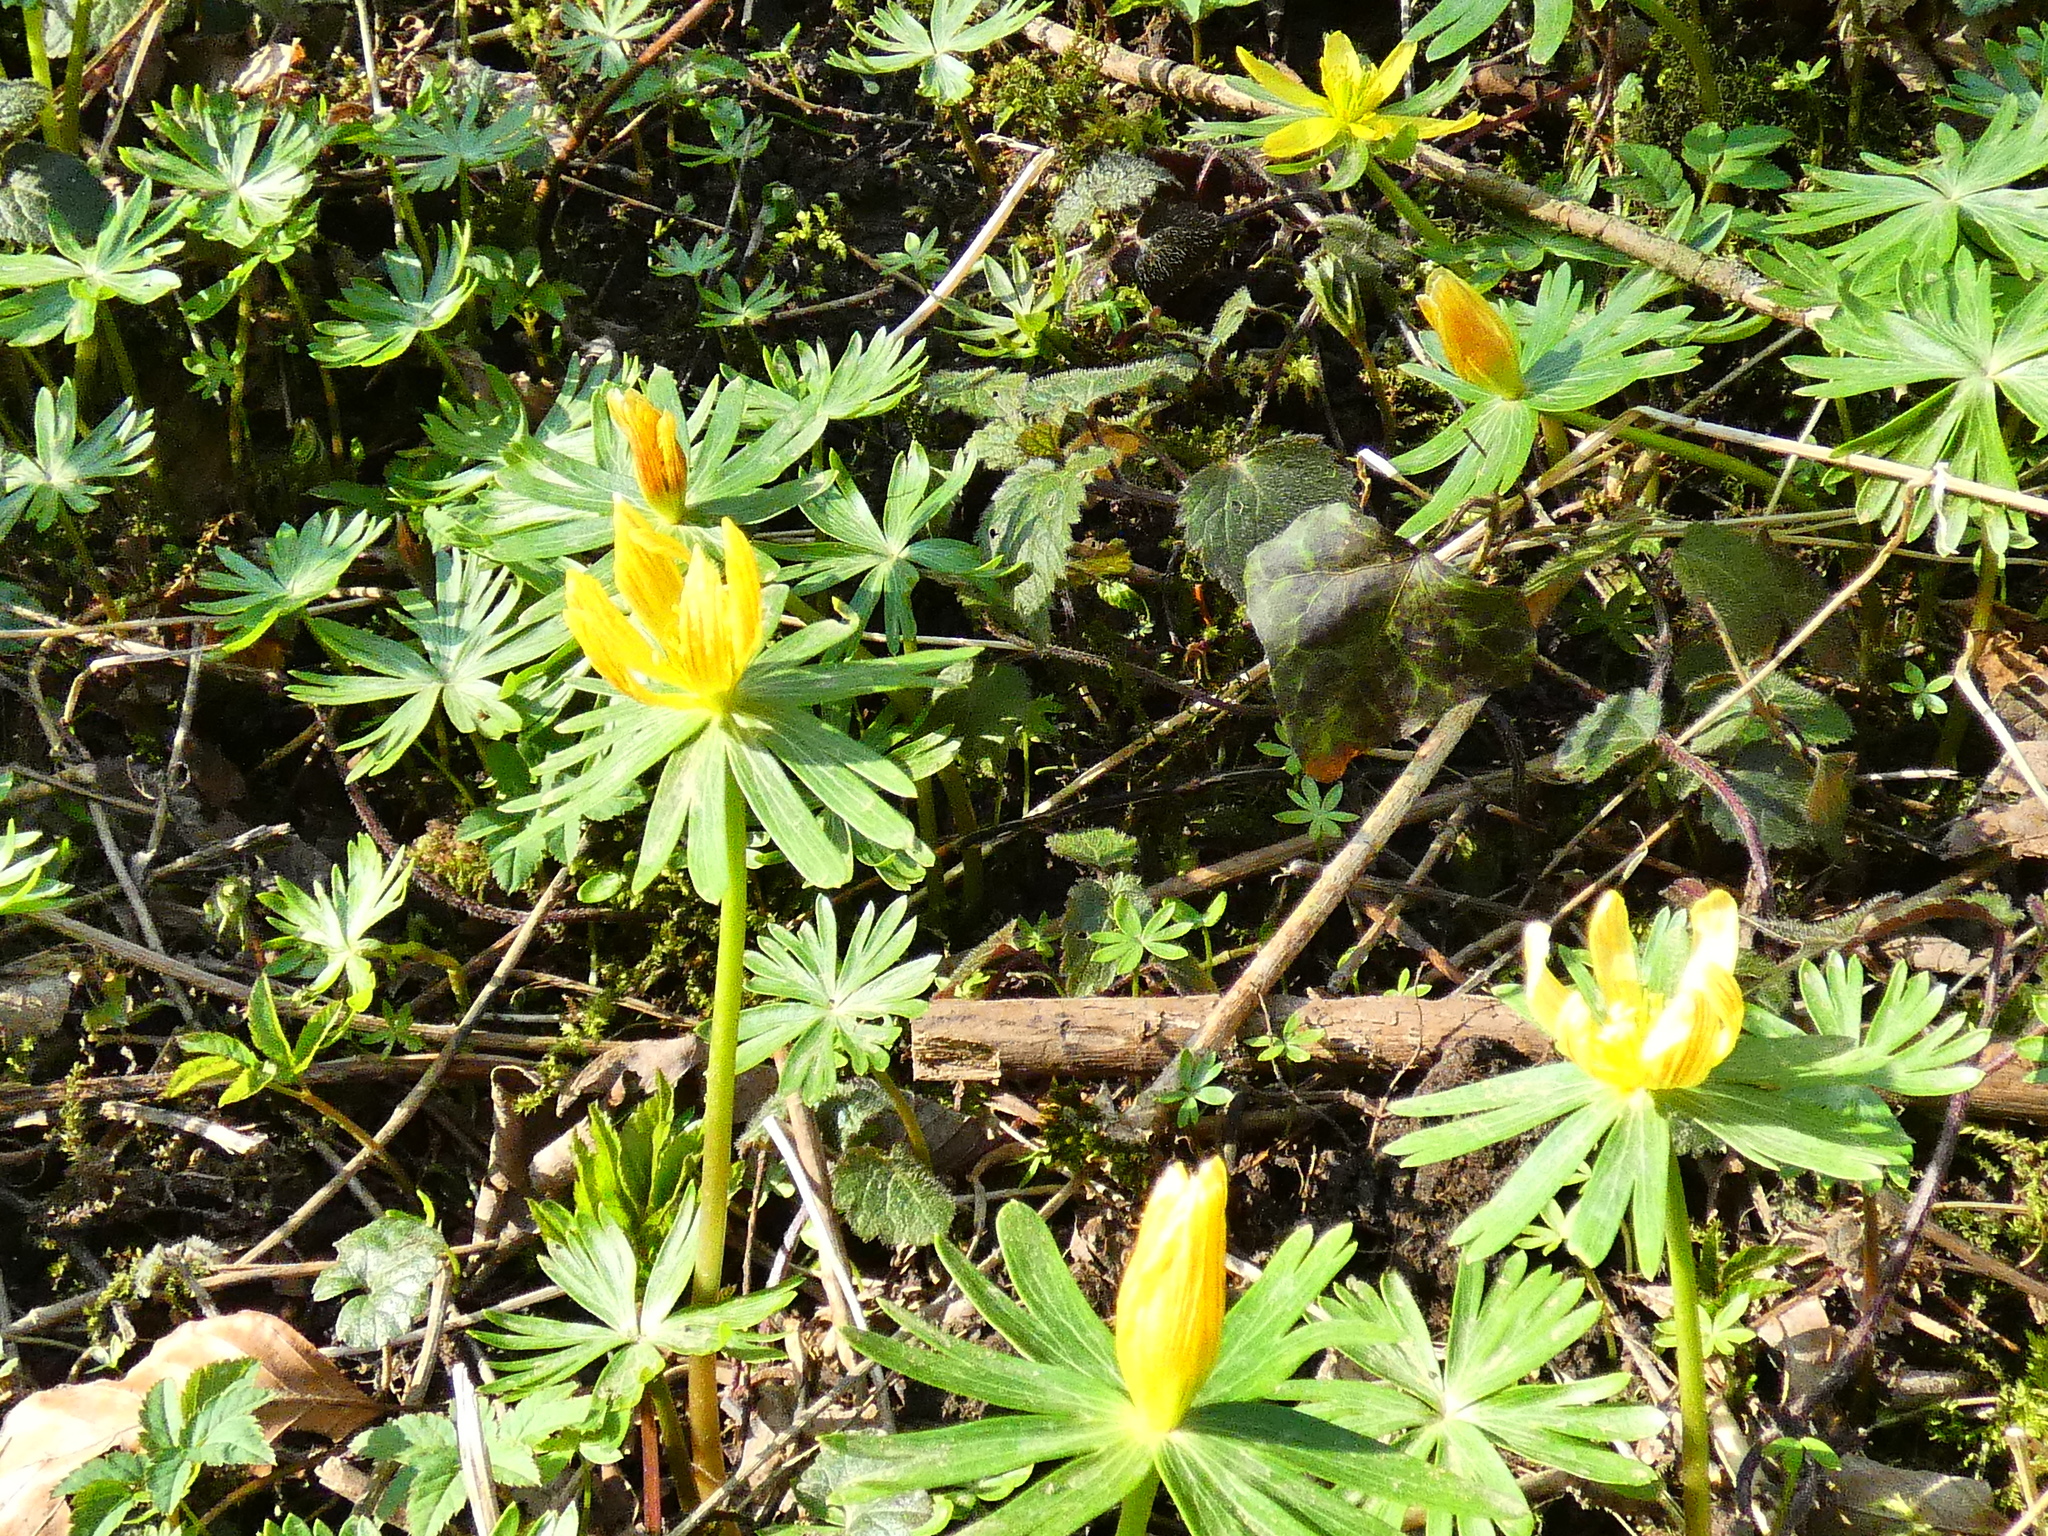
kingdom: Plantae
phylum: Tracheophyta
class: Magnoliopsida
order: Ranunculales
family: Ranunculaceae
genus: Eranthis
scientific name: Eranthis hyemalis
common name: Winter aconite
